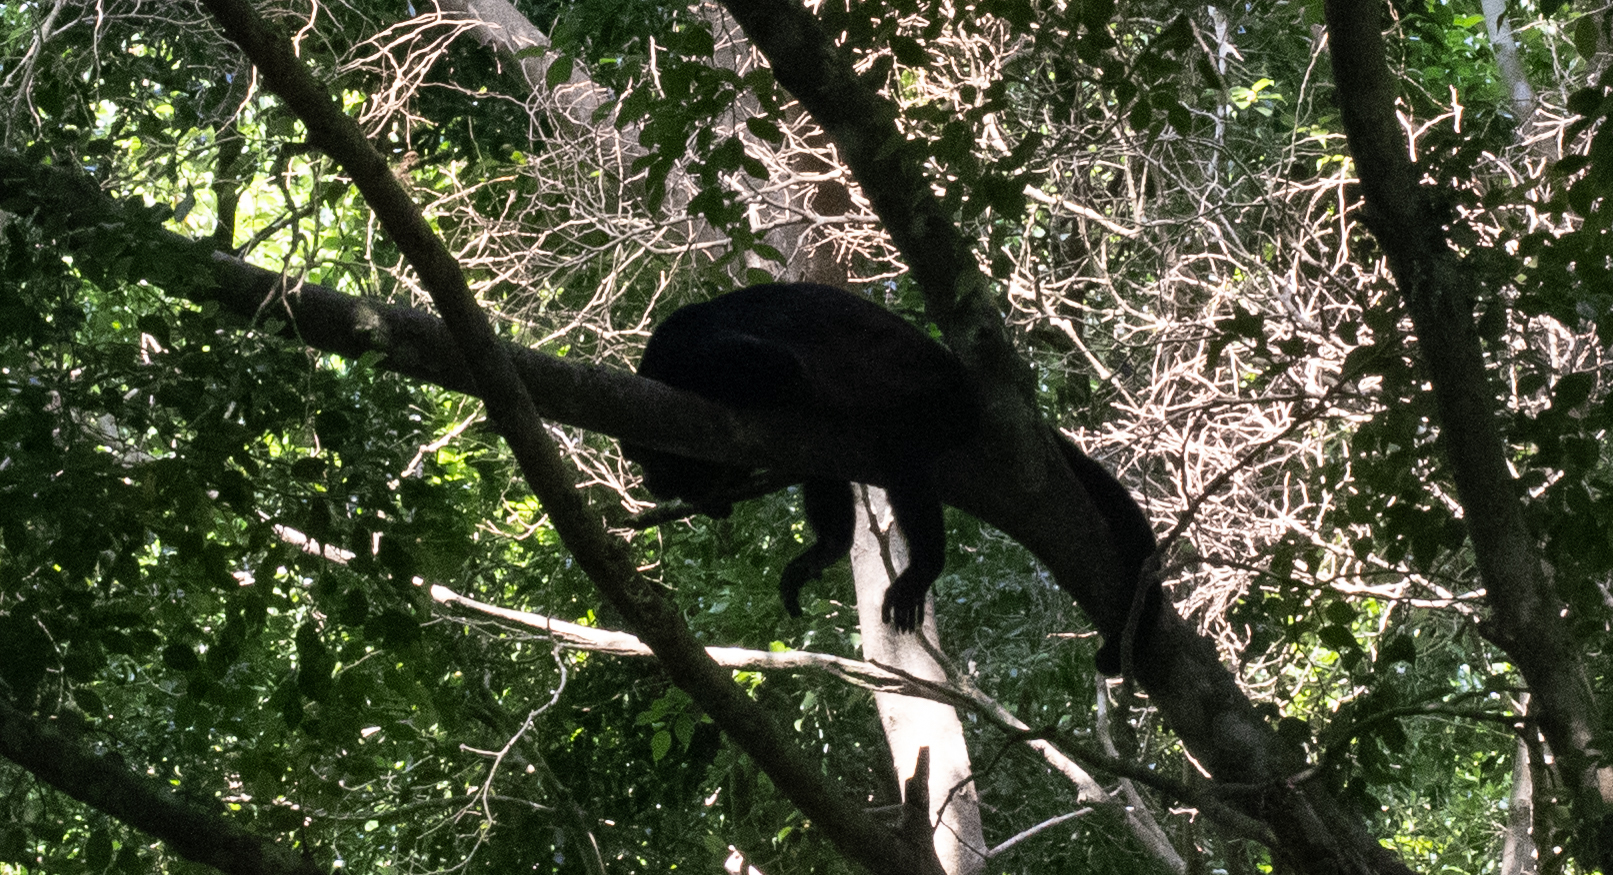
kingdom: Animalia
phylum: Chordata
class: Mammalia
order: Primates
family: Atelidae
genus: Alouatta
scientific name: Alouatta palliata
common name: Mantled howler
